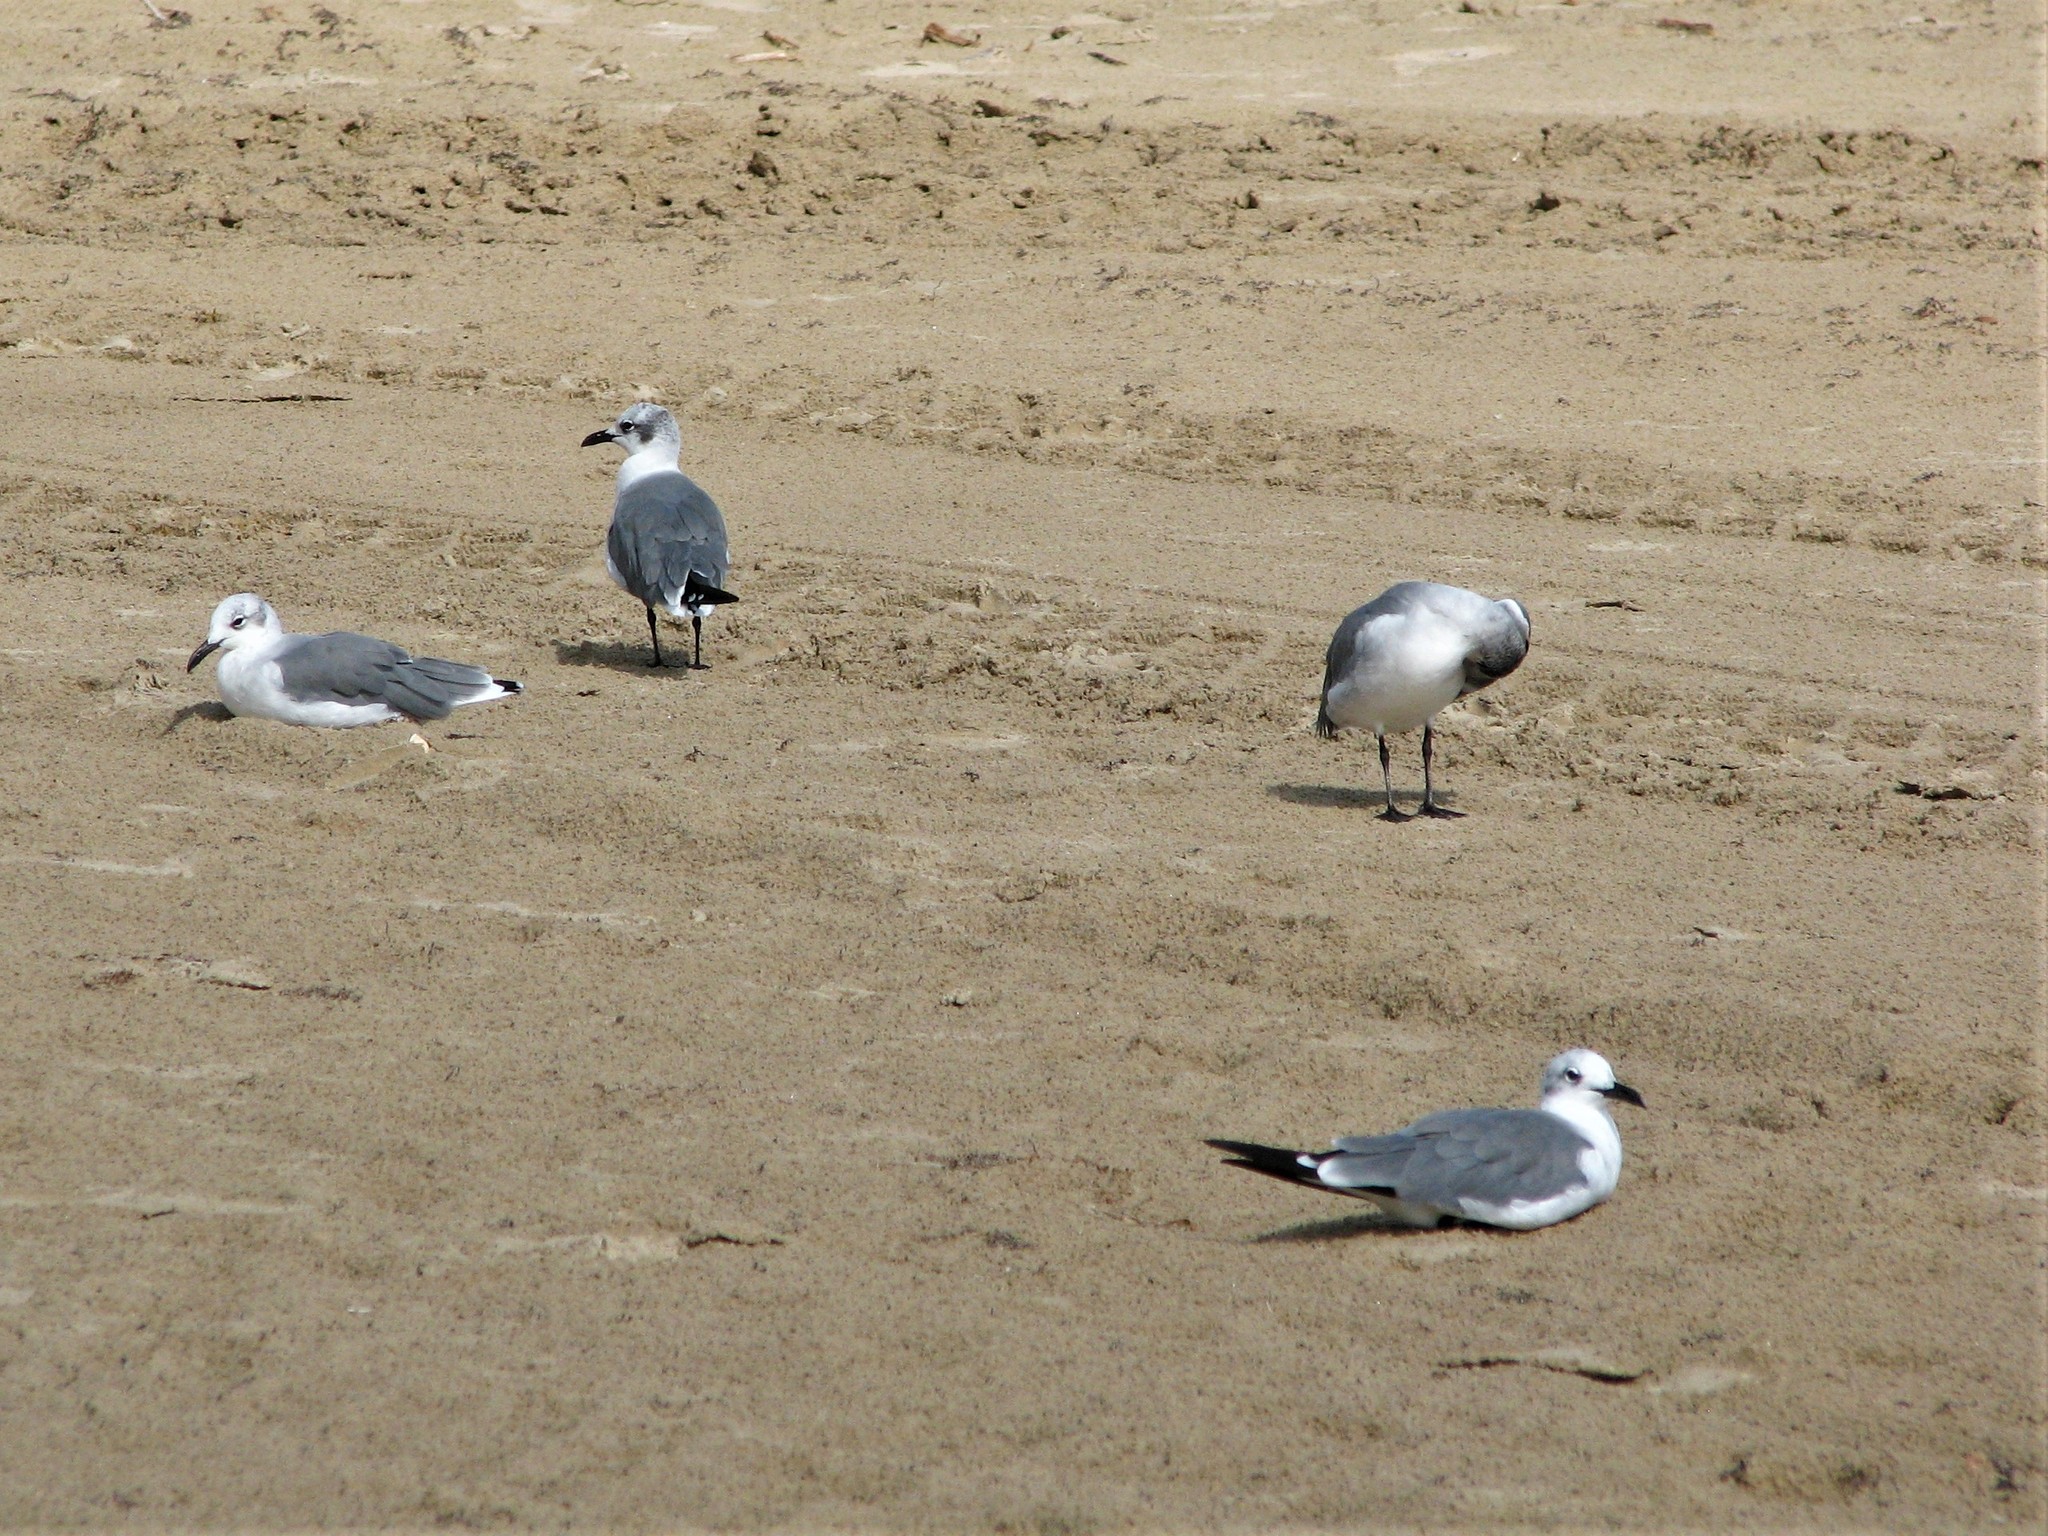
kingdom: Animalia
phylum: Chordata
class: Aves
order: Charadriiformes
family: Laridae
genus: Leucophaeus
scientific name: Leucophaeus atricilla
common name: Laughing gull
